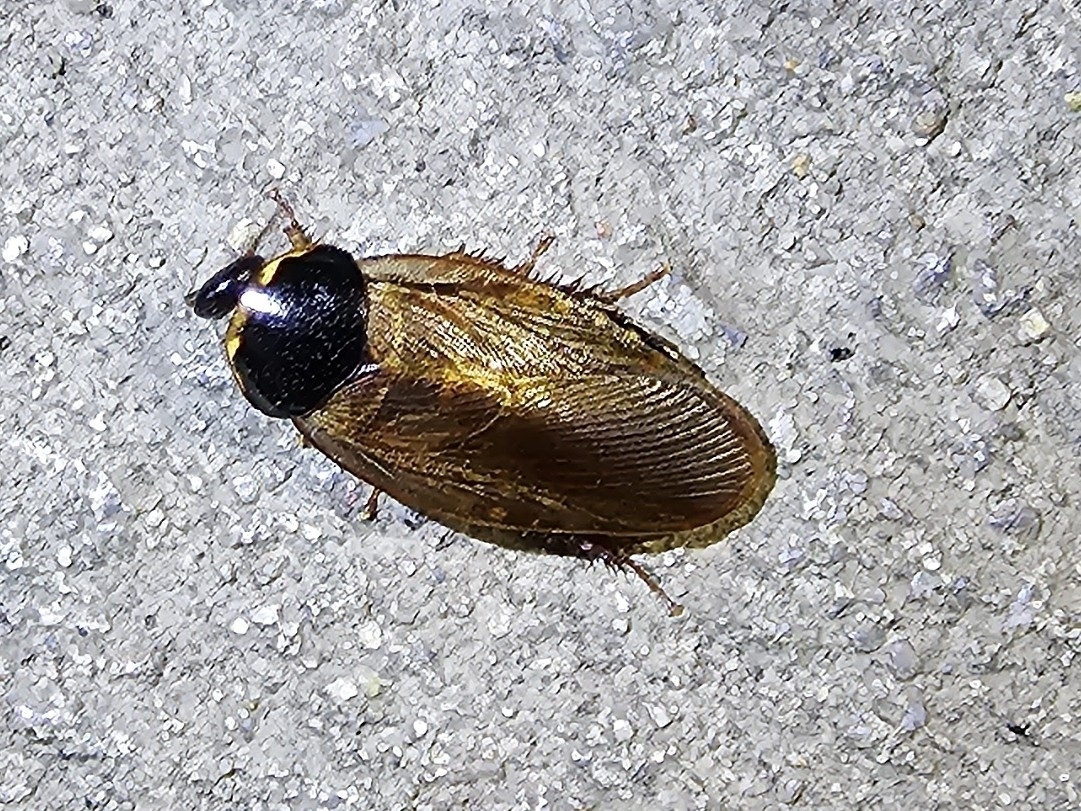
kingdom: Animalia
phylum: Arthropoda
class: Insecta
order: Blattodea
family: Blaberidae
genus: Pycnoscelus
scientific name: Pycnoscelus surinamensis
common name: Surinam cockroach
